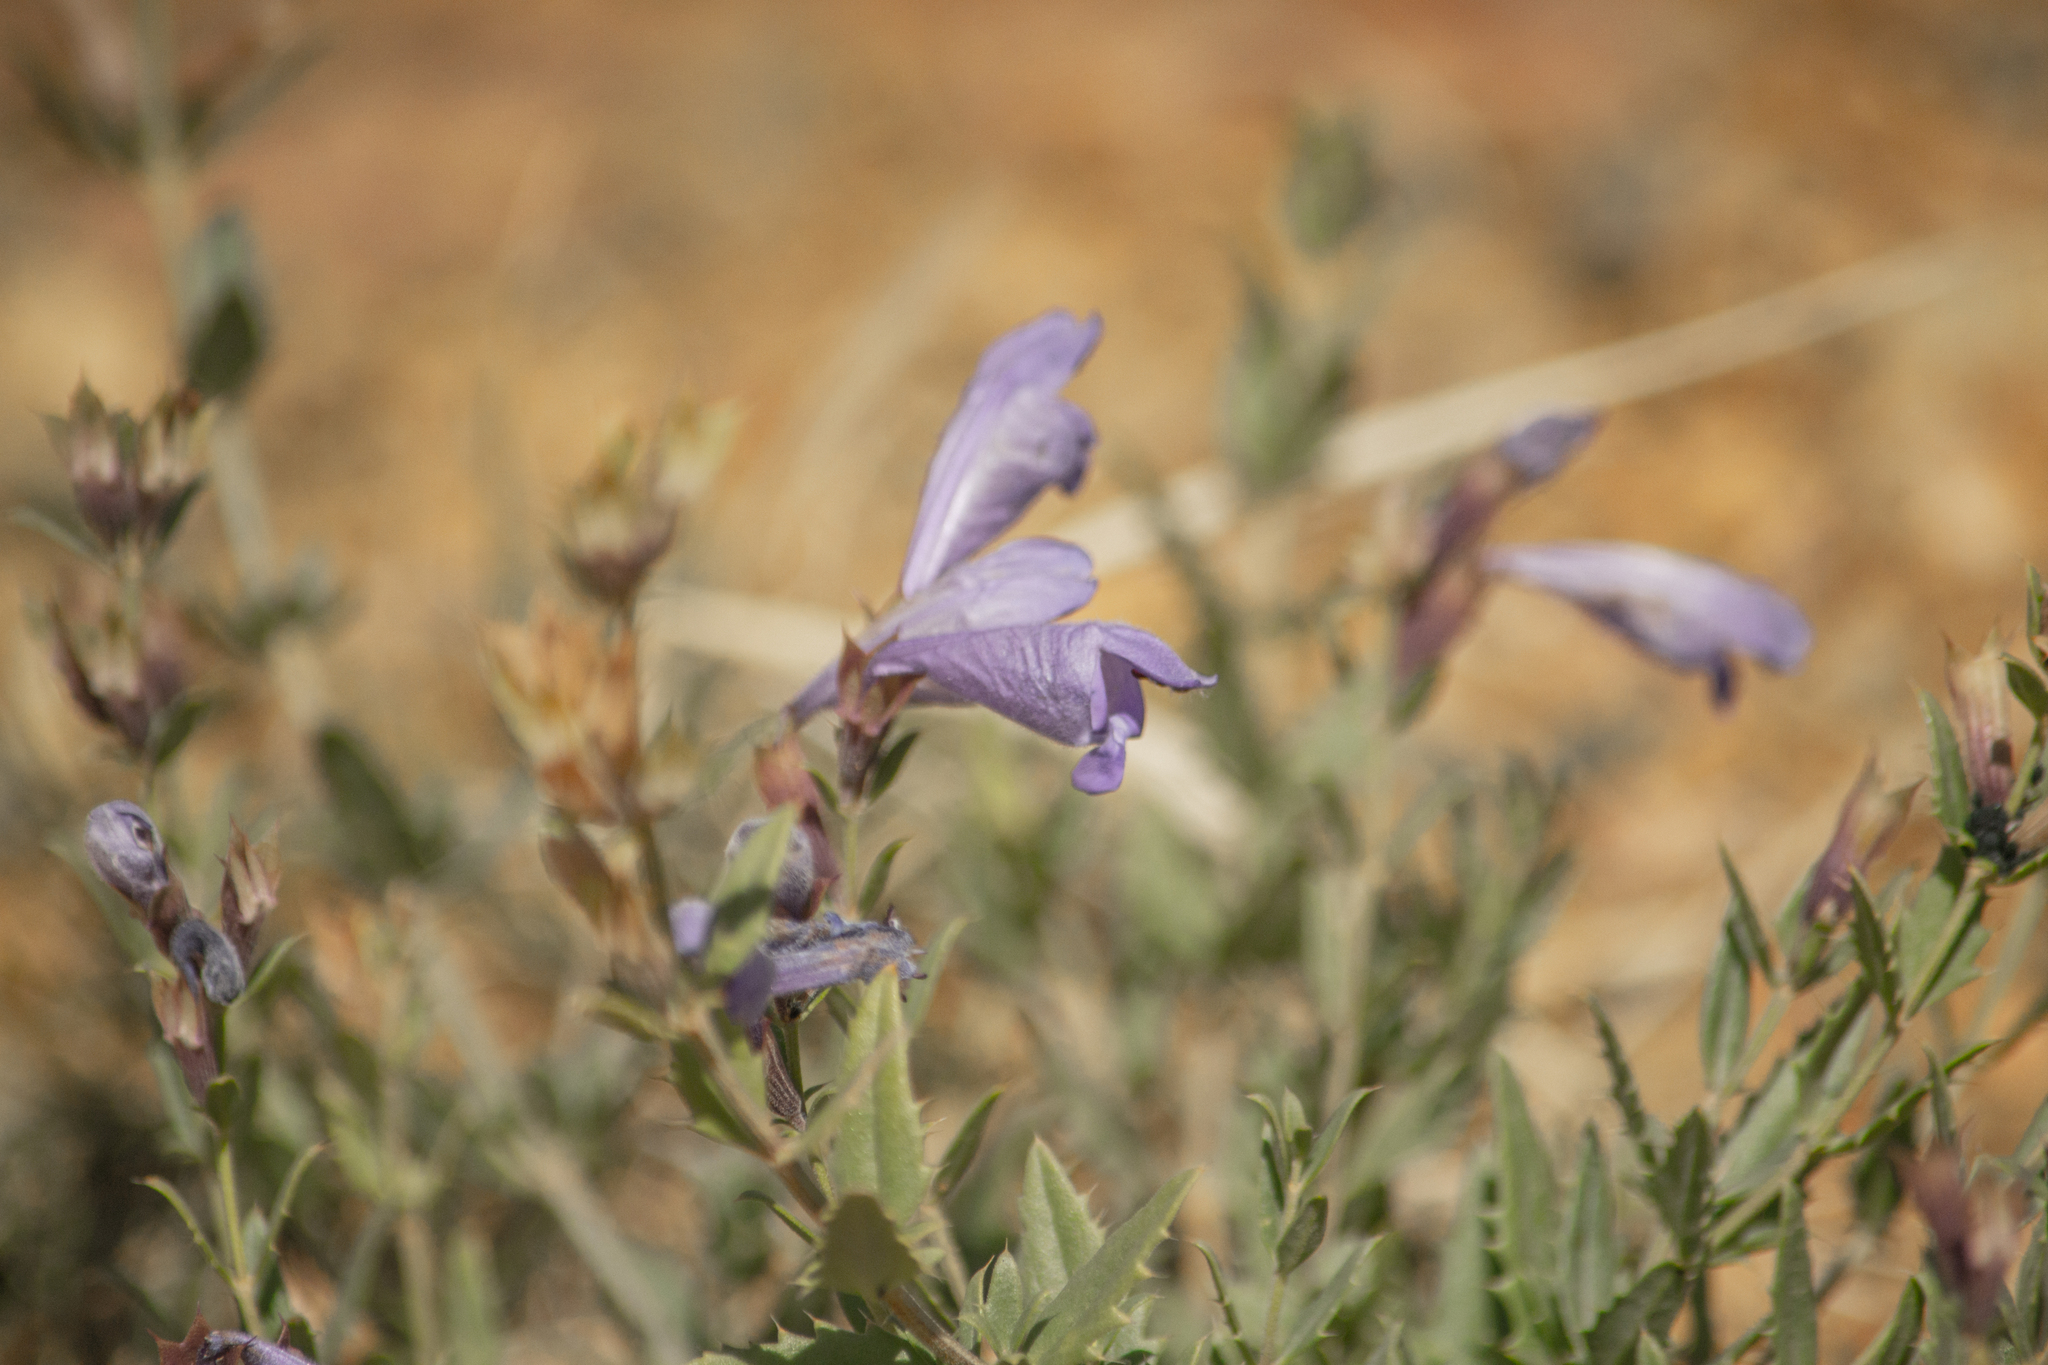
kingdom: Plantae
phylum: Tracheophyta
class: Magnoliopsida
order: Lamiales
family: Lamiaceae
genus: Dracocephalum
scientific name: Dracocephalum peregrinum
